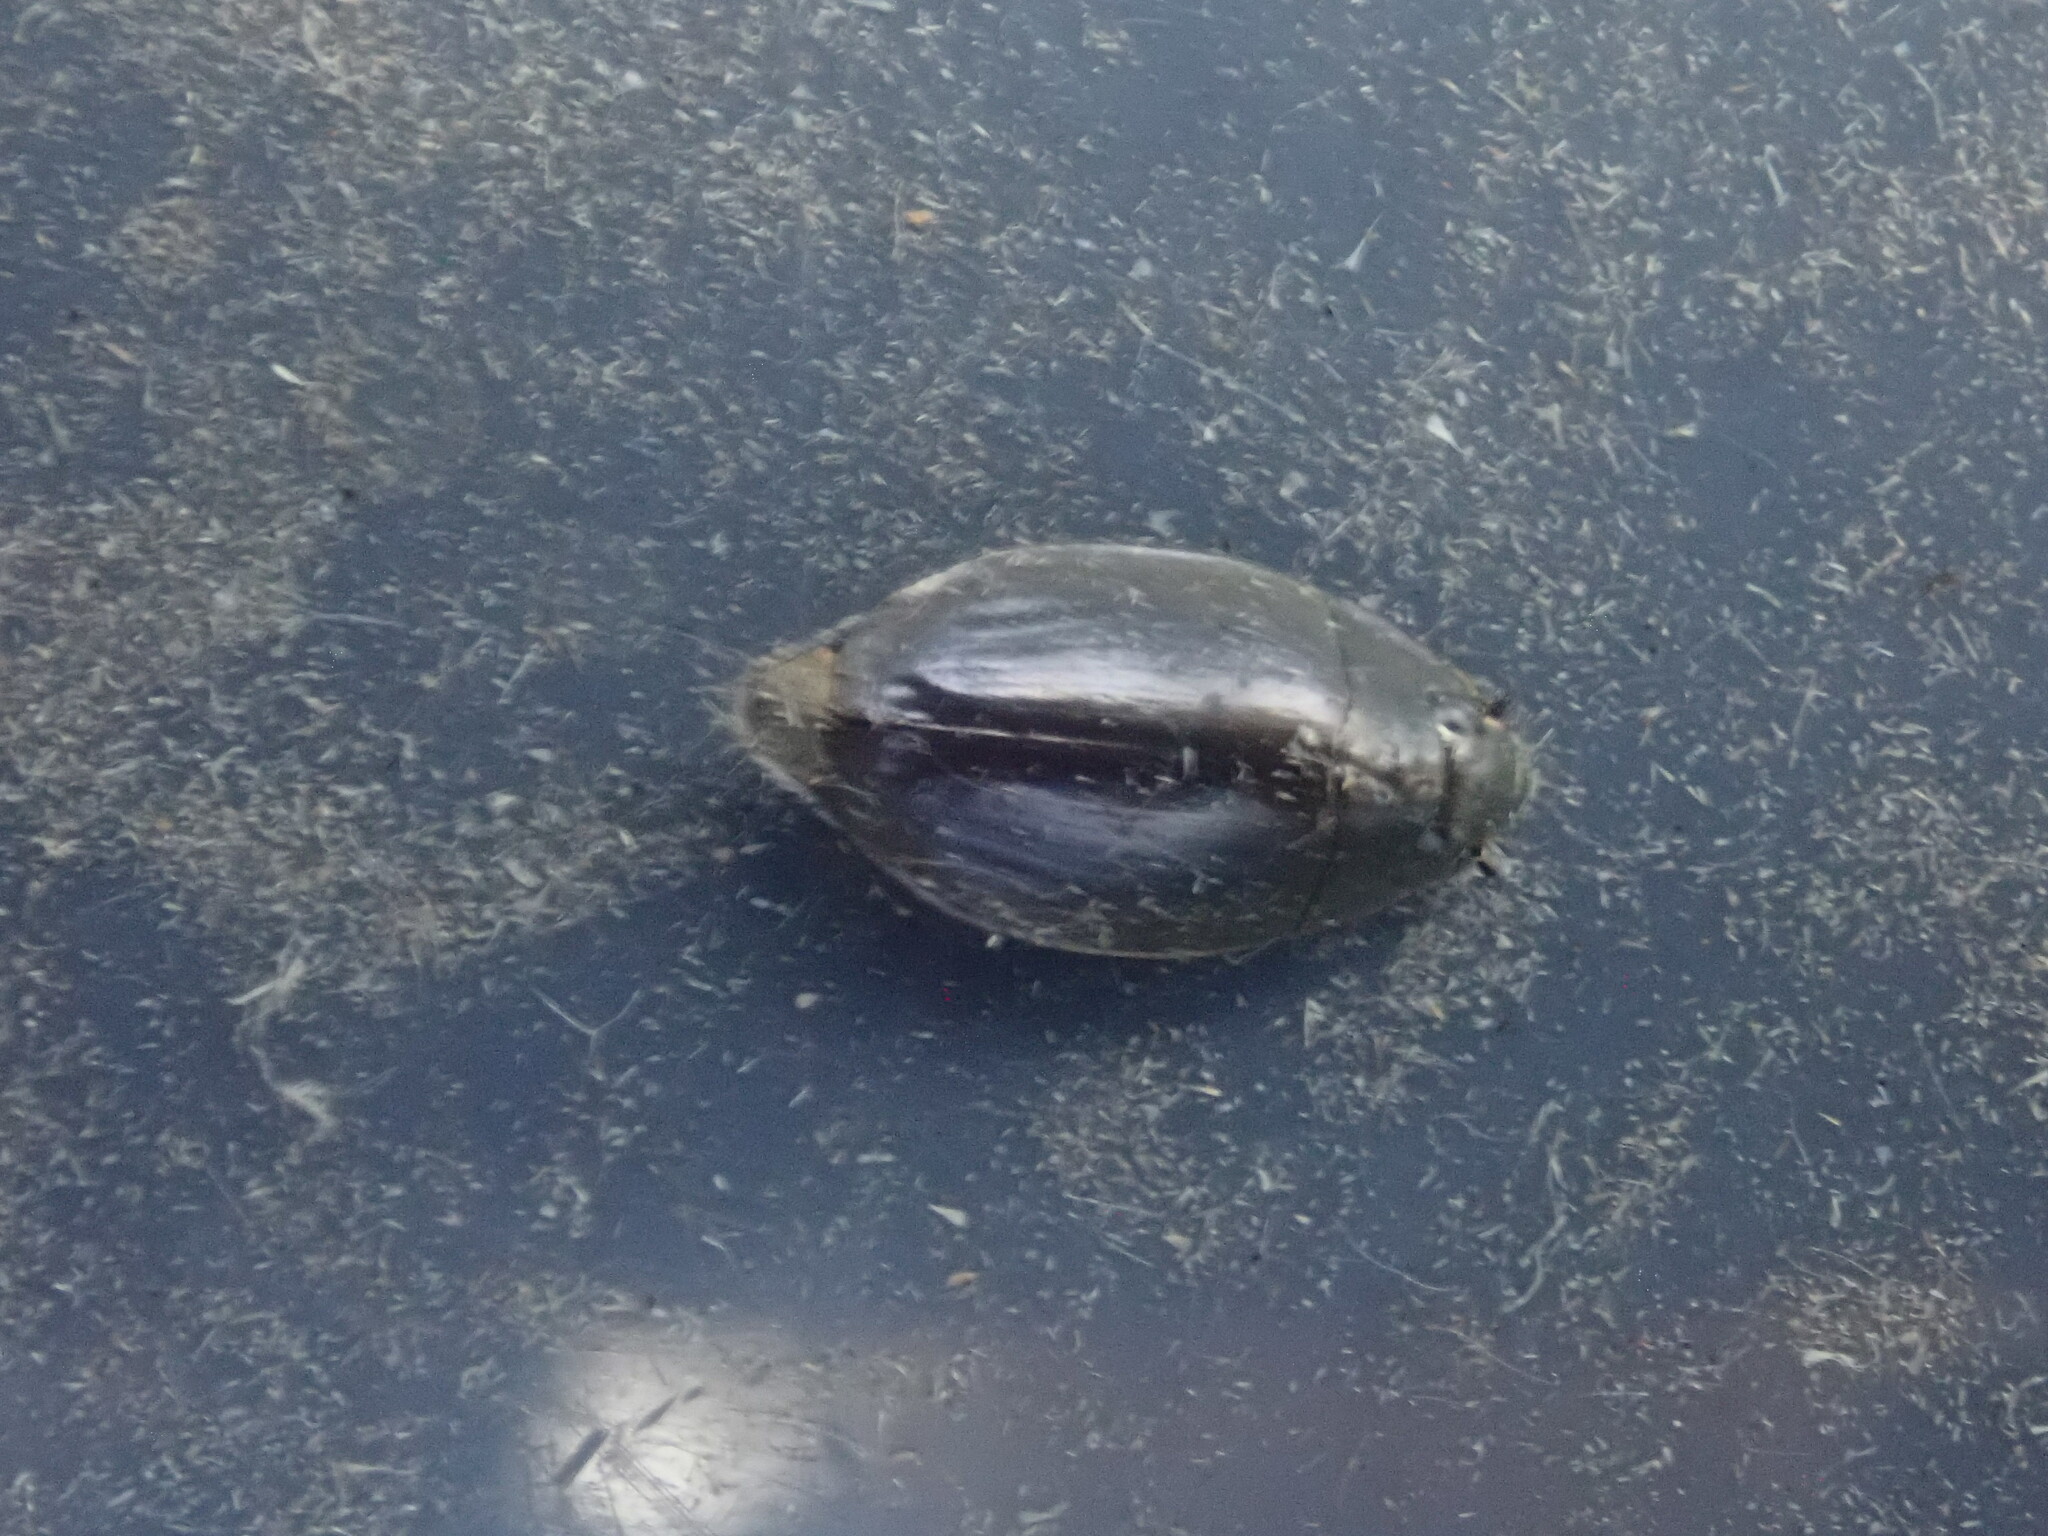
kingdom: Animalia
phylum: Arthropoda
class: Insecta
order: Coleoptera
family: Gyrinidae
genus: Dineutus
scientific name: Dineutus
